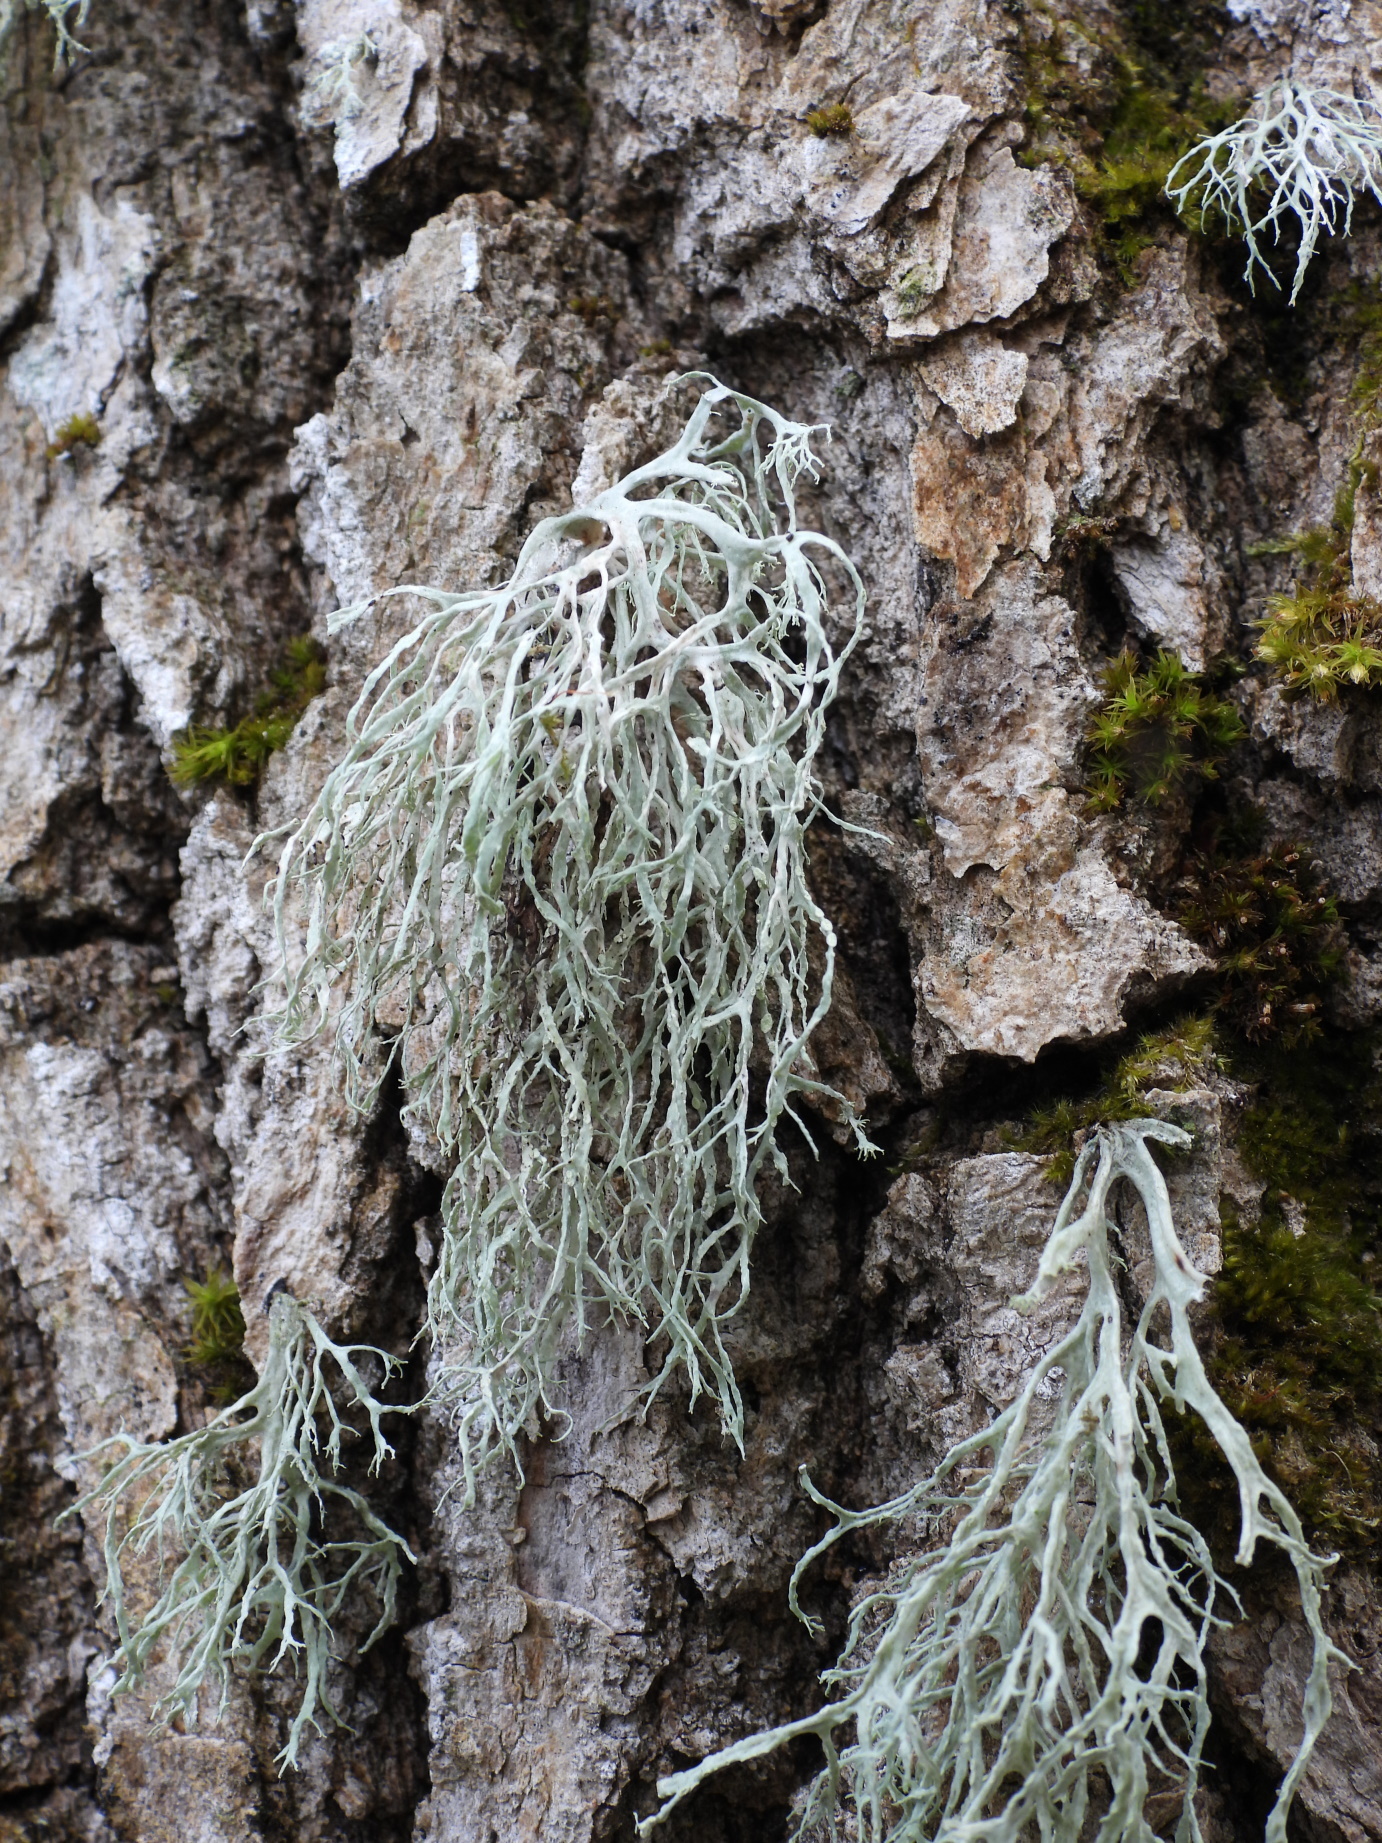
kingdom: Fungi
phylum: Ascomycota
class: Lecanoromycetes
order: Lecanorales
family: Ramalinaceae
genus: Ramalina
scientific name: Ramalina farinacea
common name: Farinose cartilage lichen
